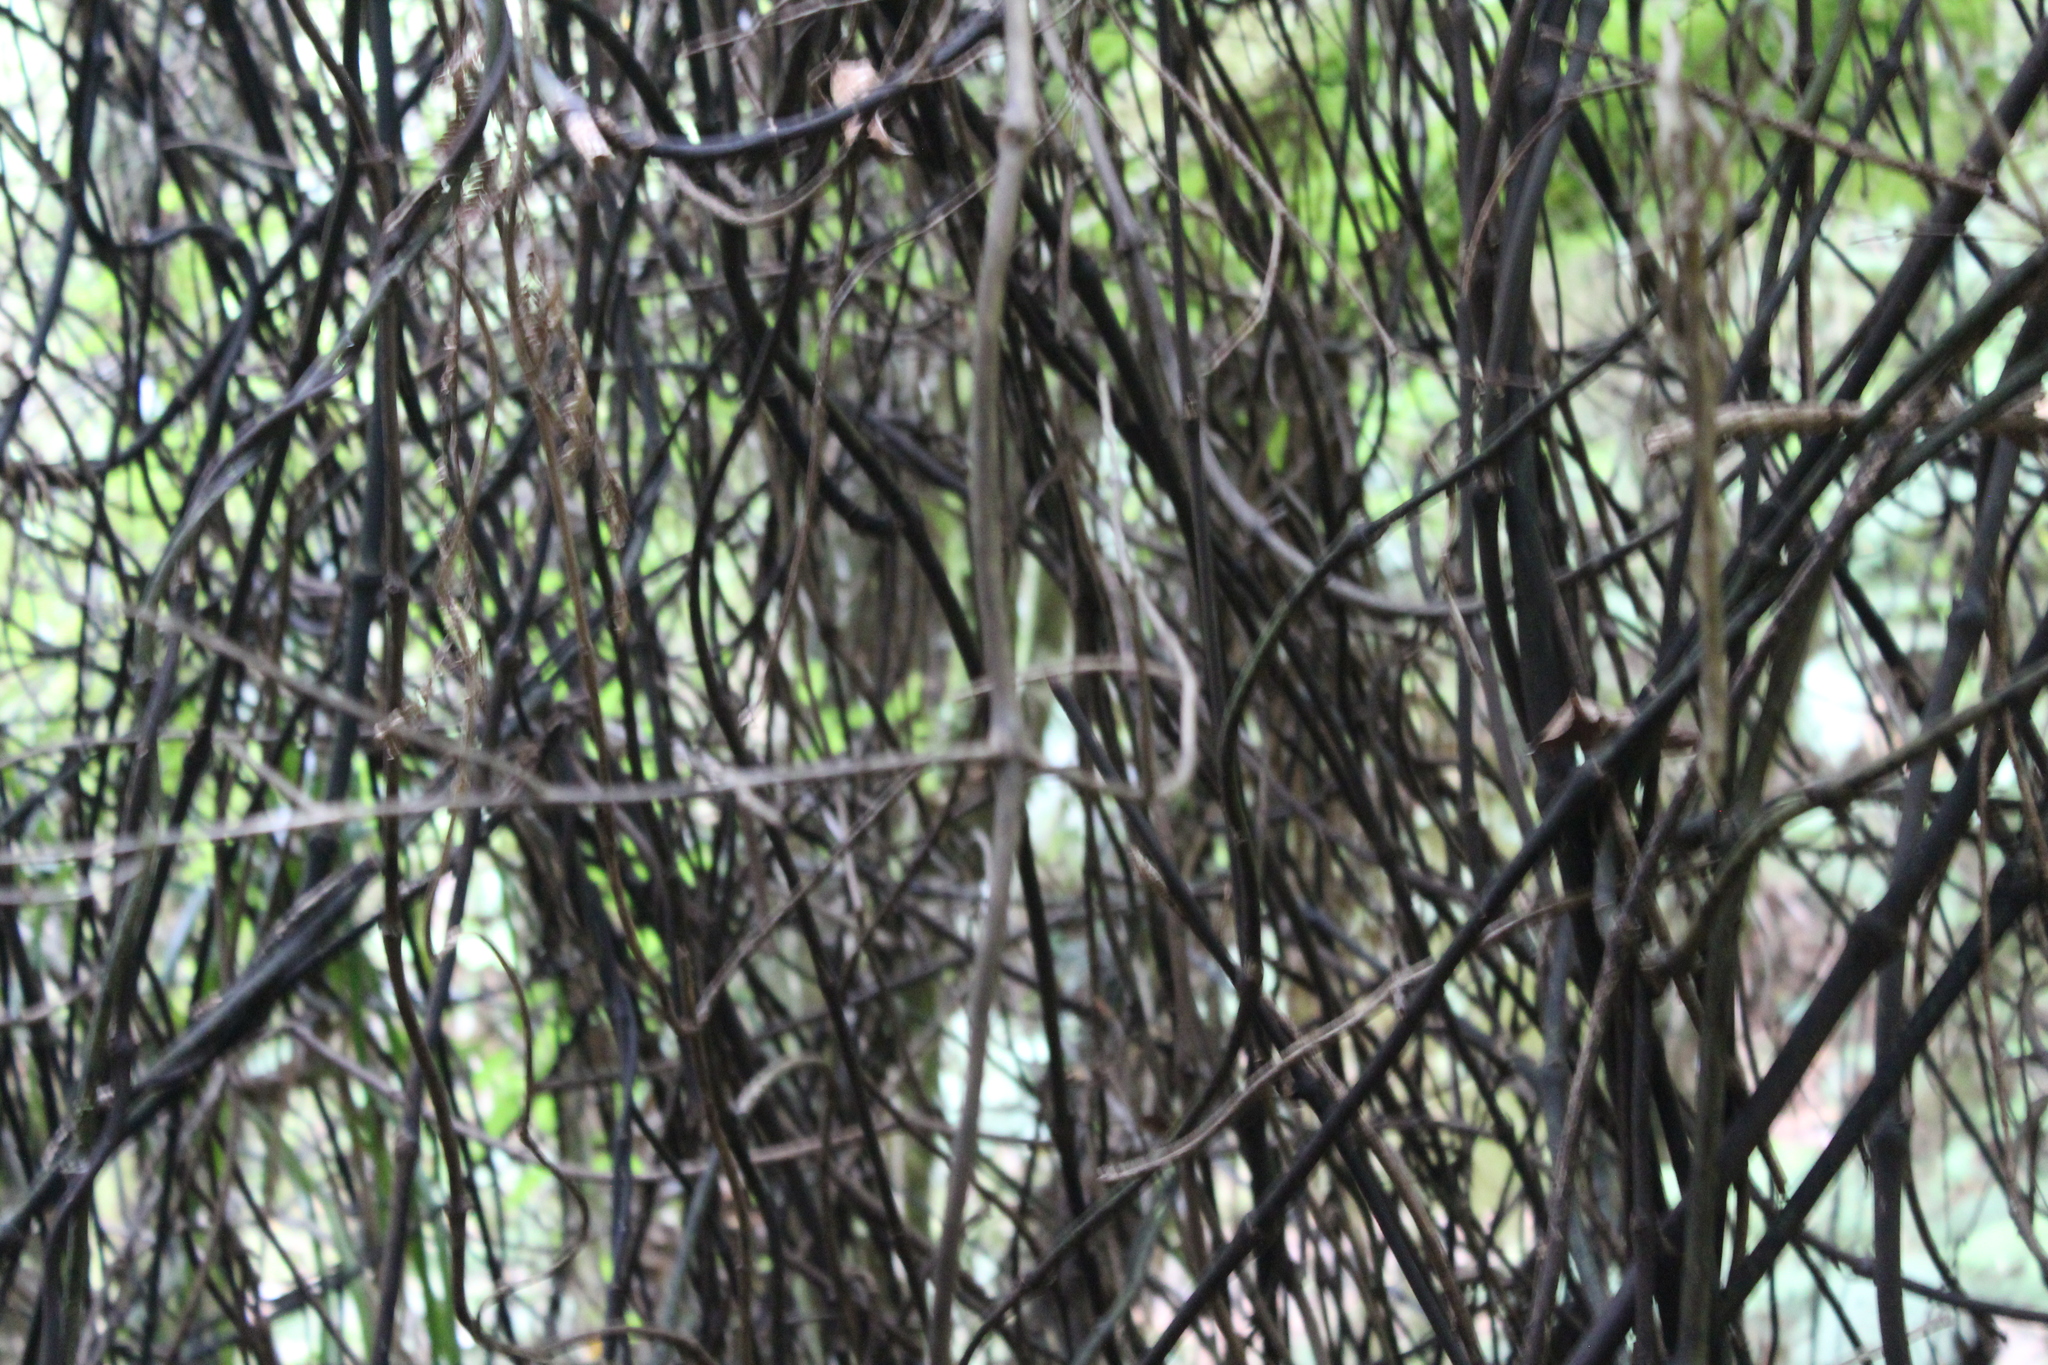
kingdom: Plantae
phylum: Tracheophyta
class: Liliopsida
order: Liliales
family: Ripogonaceae
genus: Ripogonum
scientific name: Ripogonum scandens
